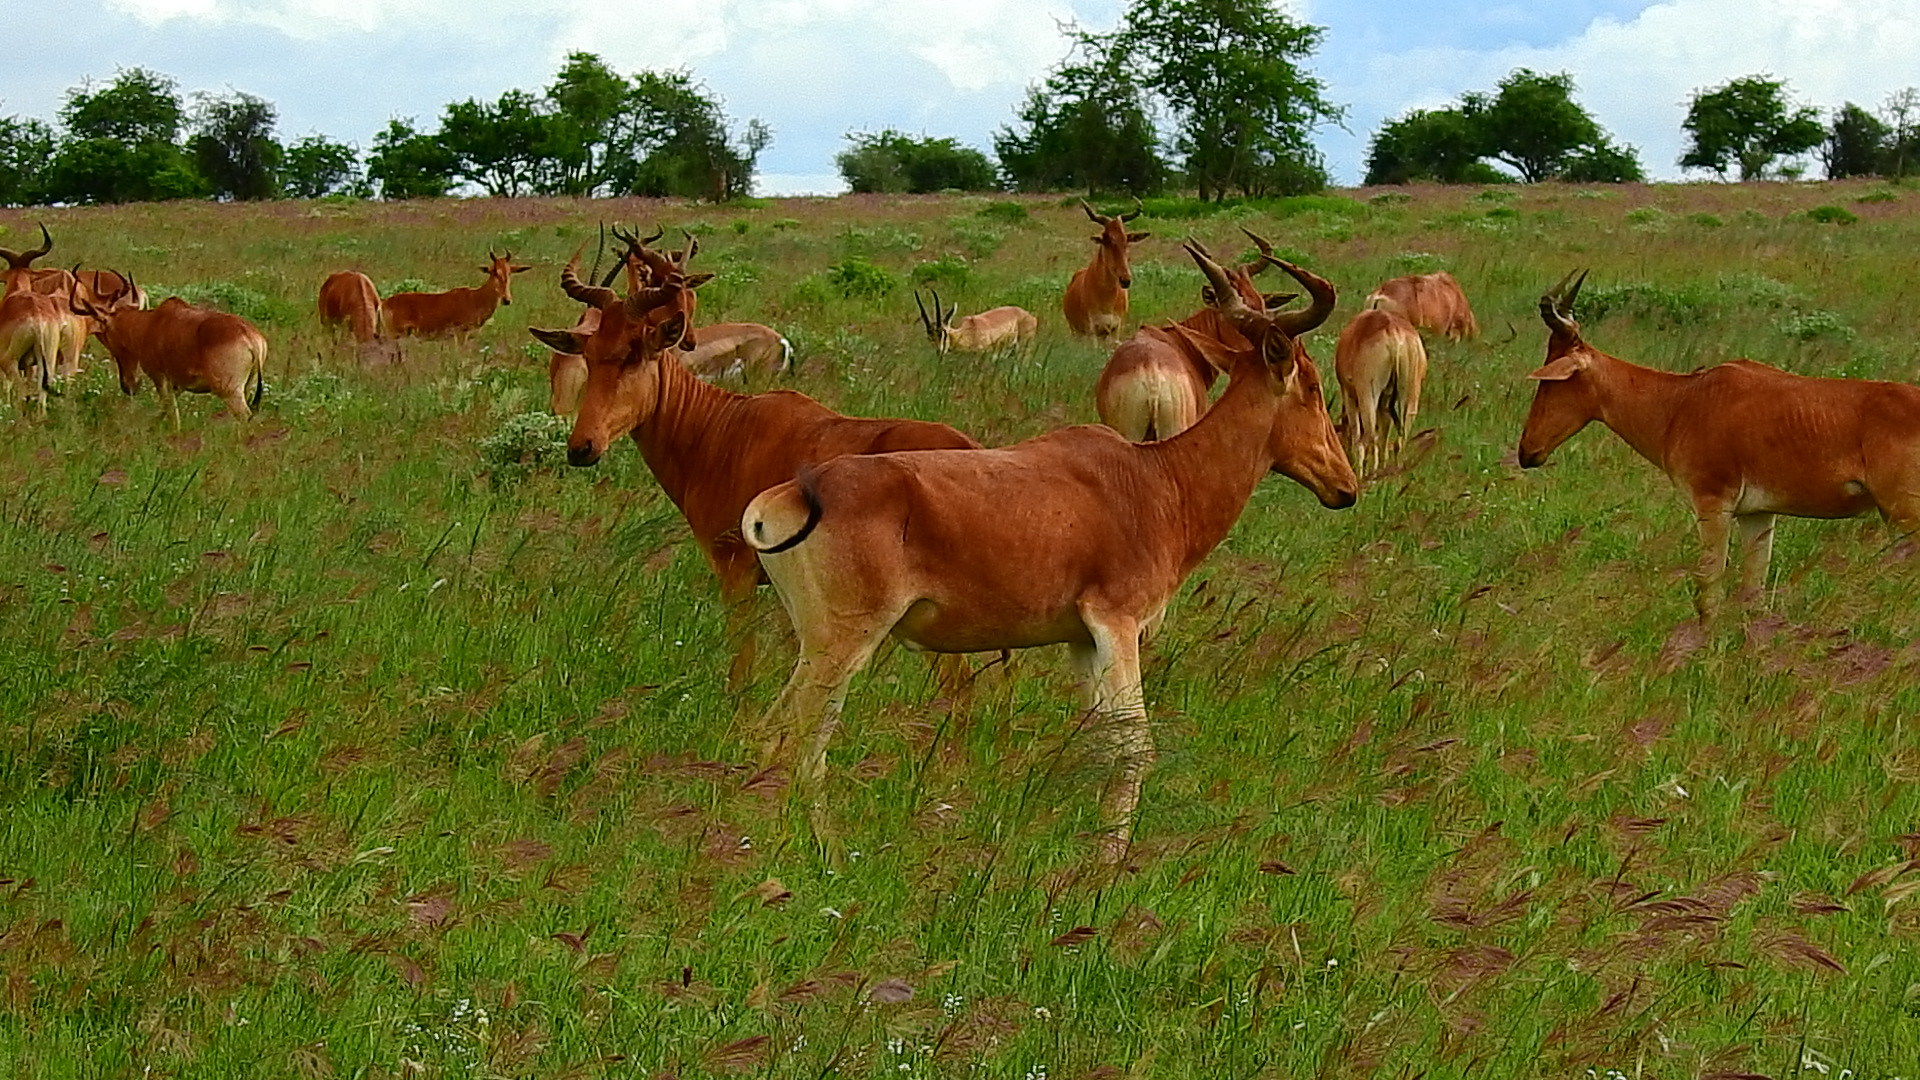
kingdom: Animalia
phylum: Chordata
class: Mammalia
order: Artiodactyla
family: Bovidae
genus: Alcelaphus
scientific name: Alcelaphus buselaphus
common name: Hartebeest
